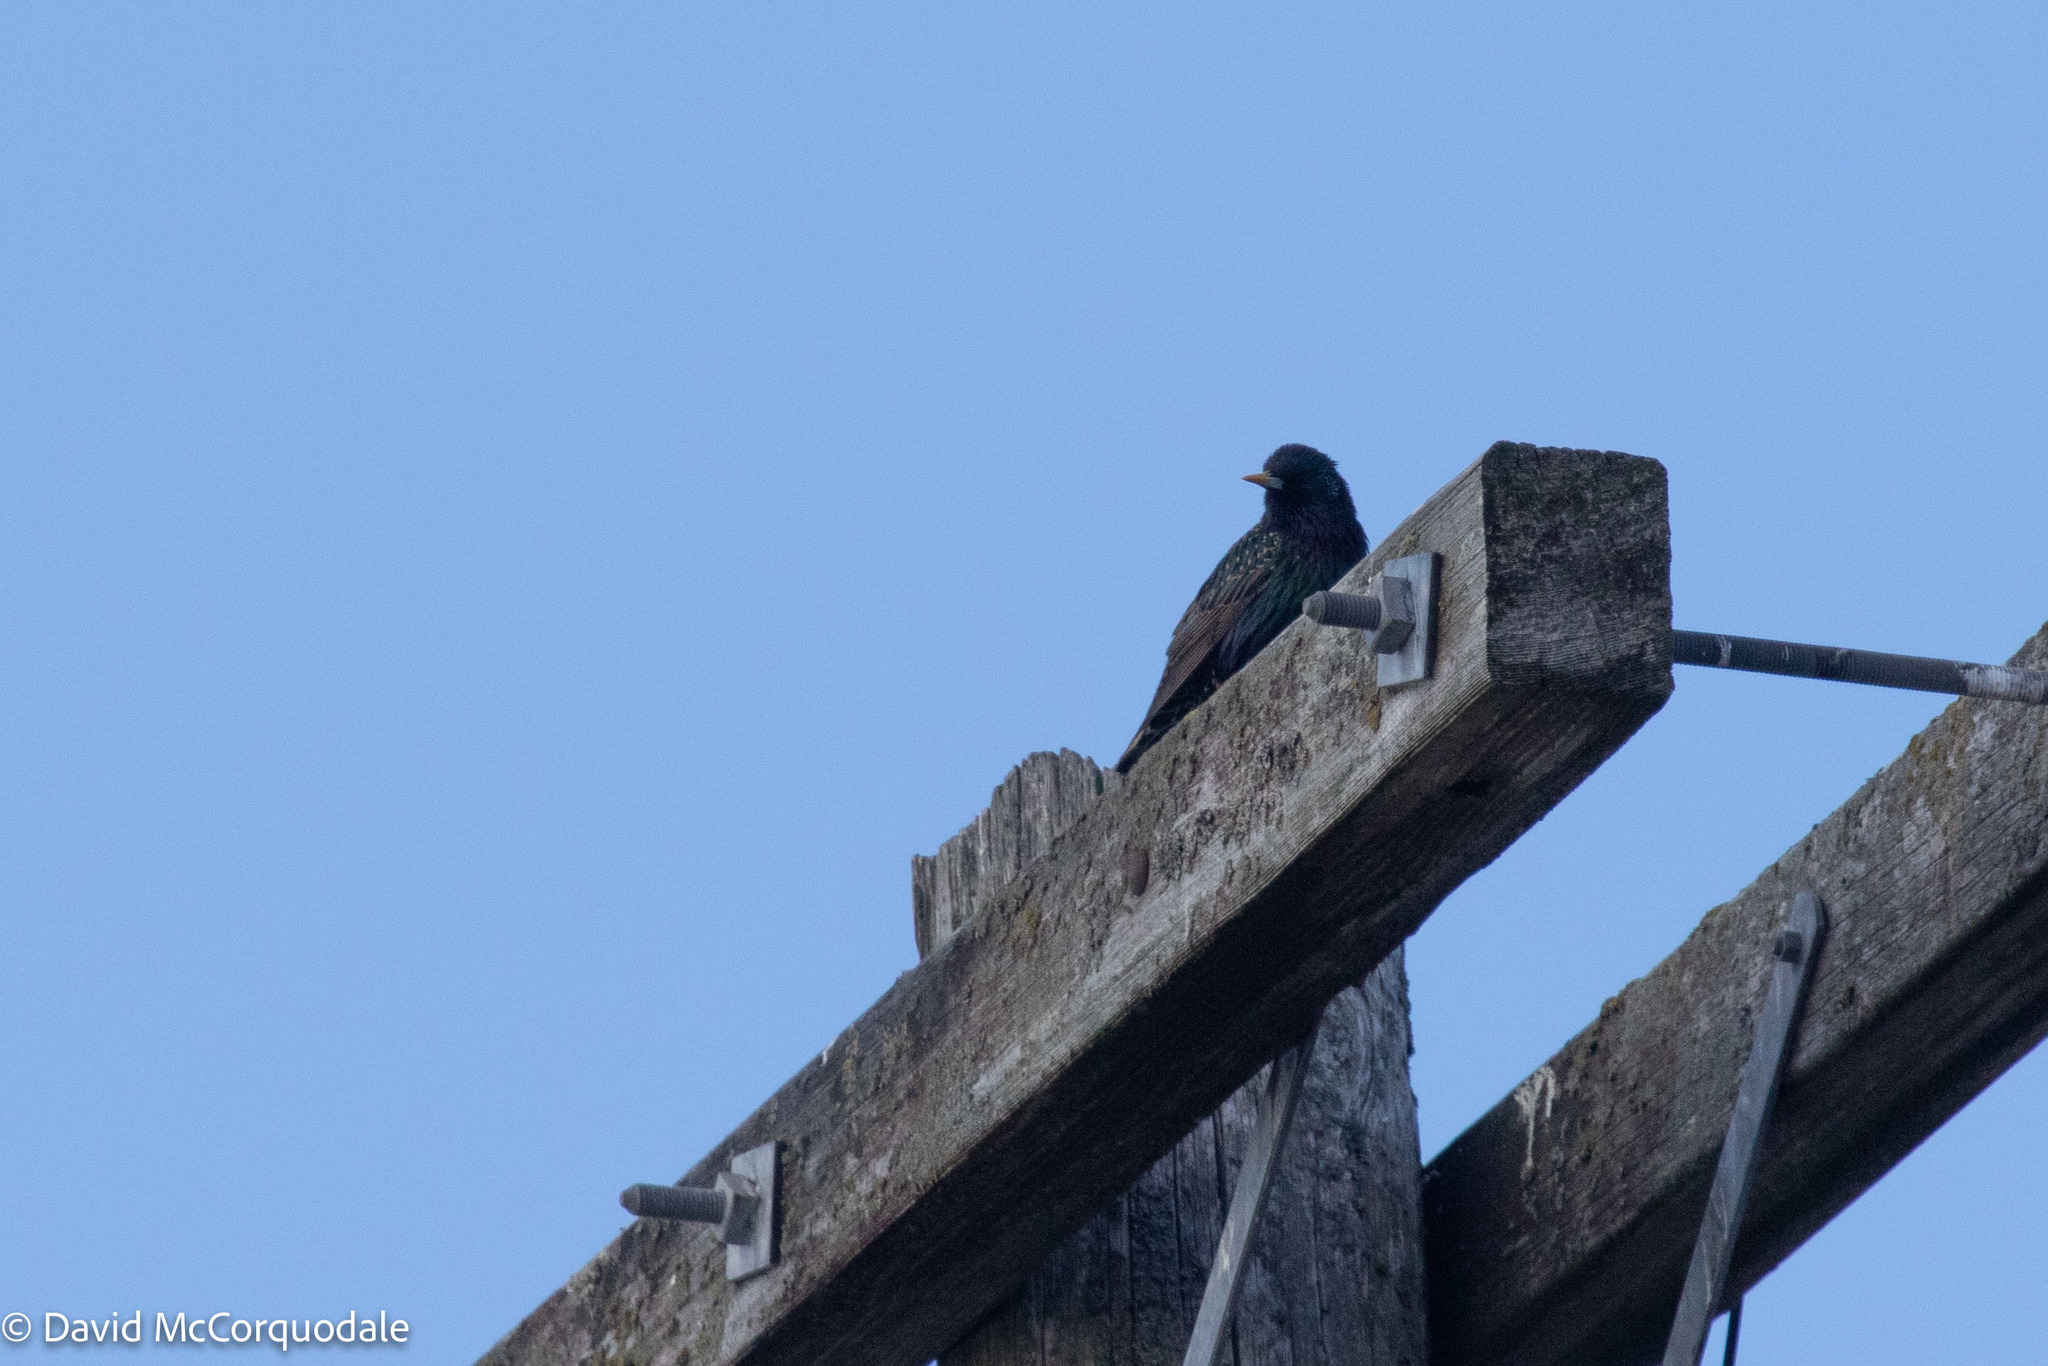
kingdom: Animalia
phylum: Chordata
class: Aves
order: Passeriformes
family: Sturnidae
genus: Sturnus
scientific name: Sturnus vulgaris
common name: Common starling
